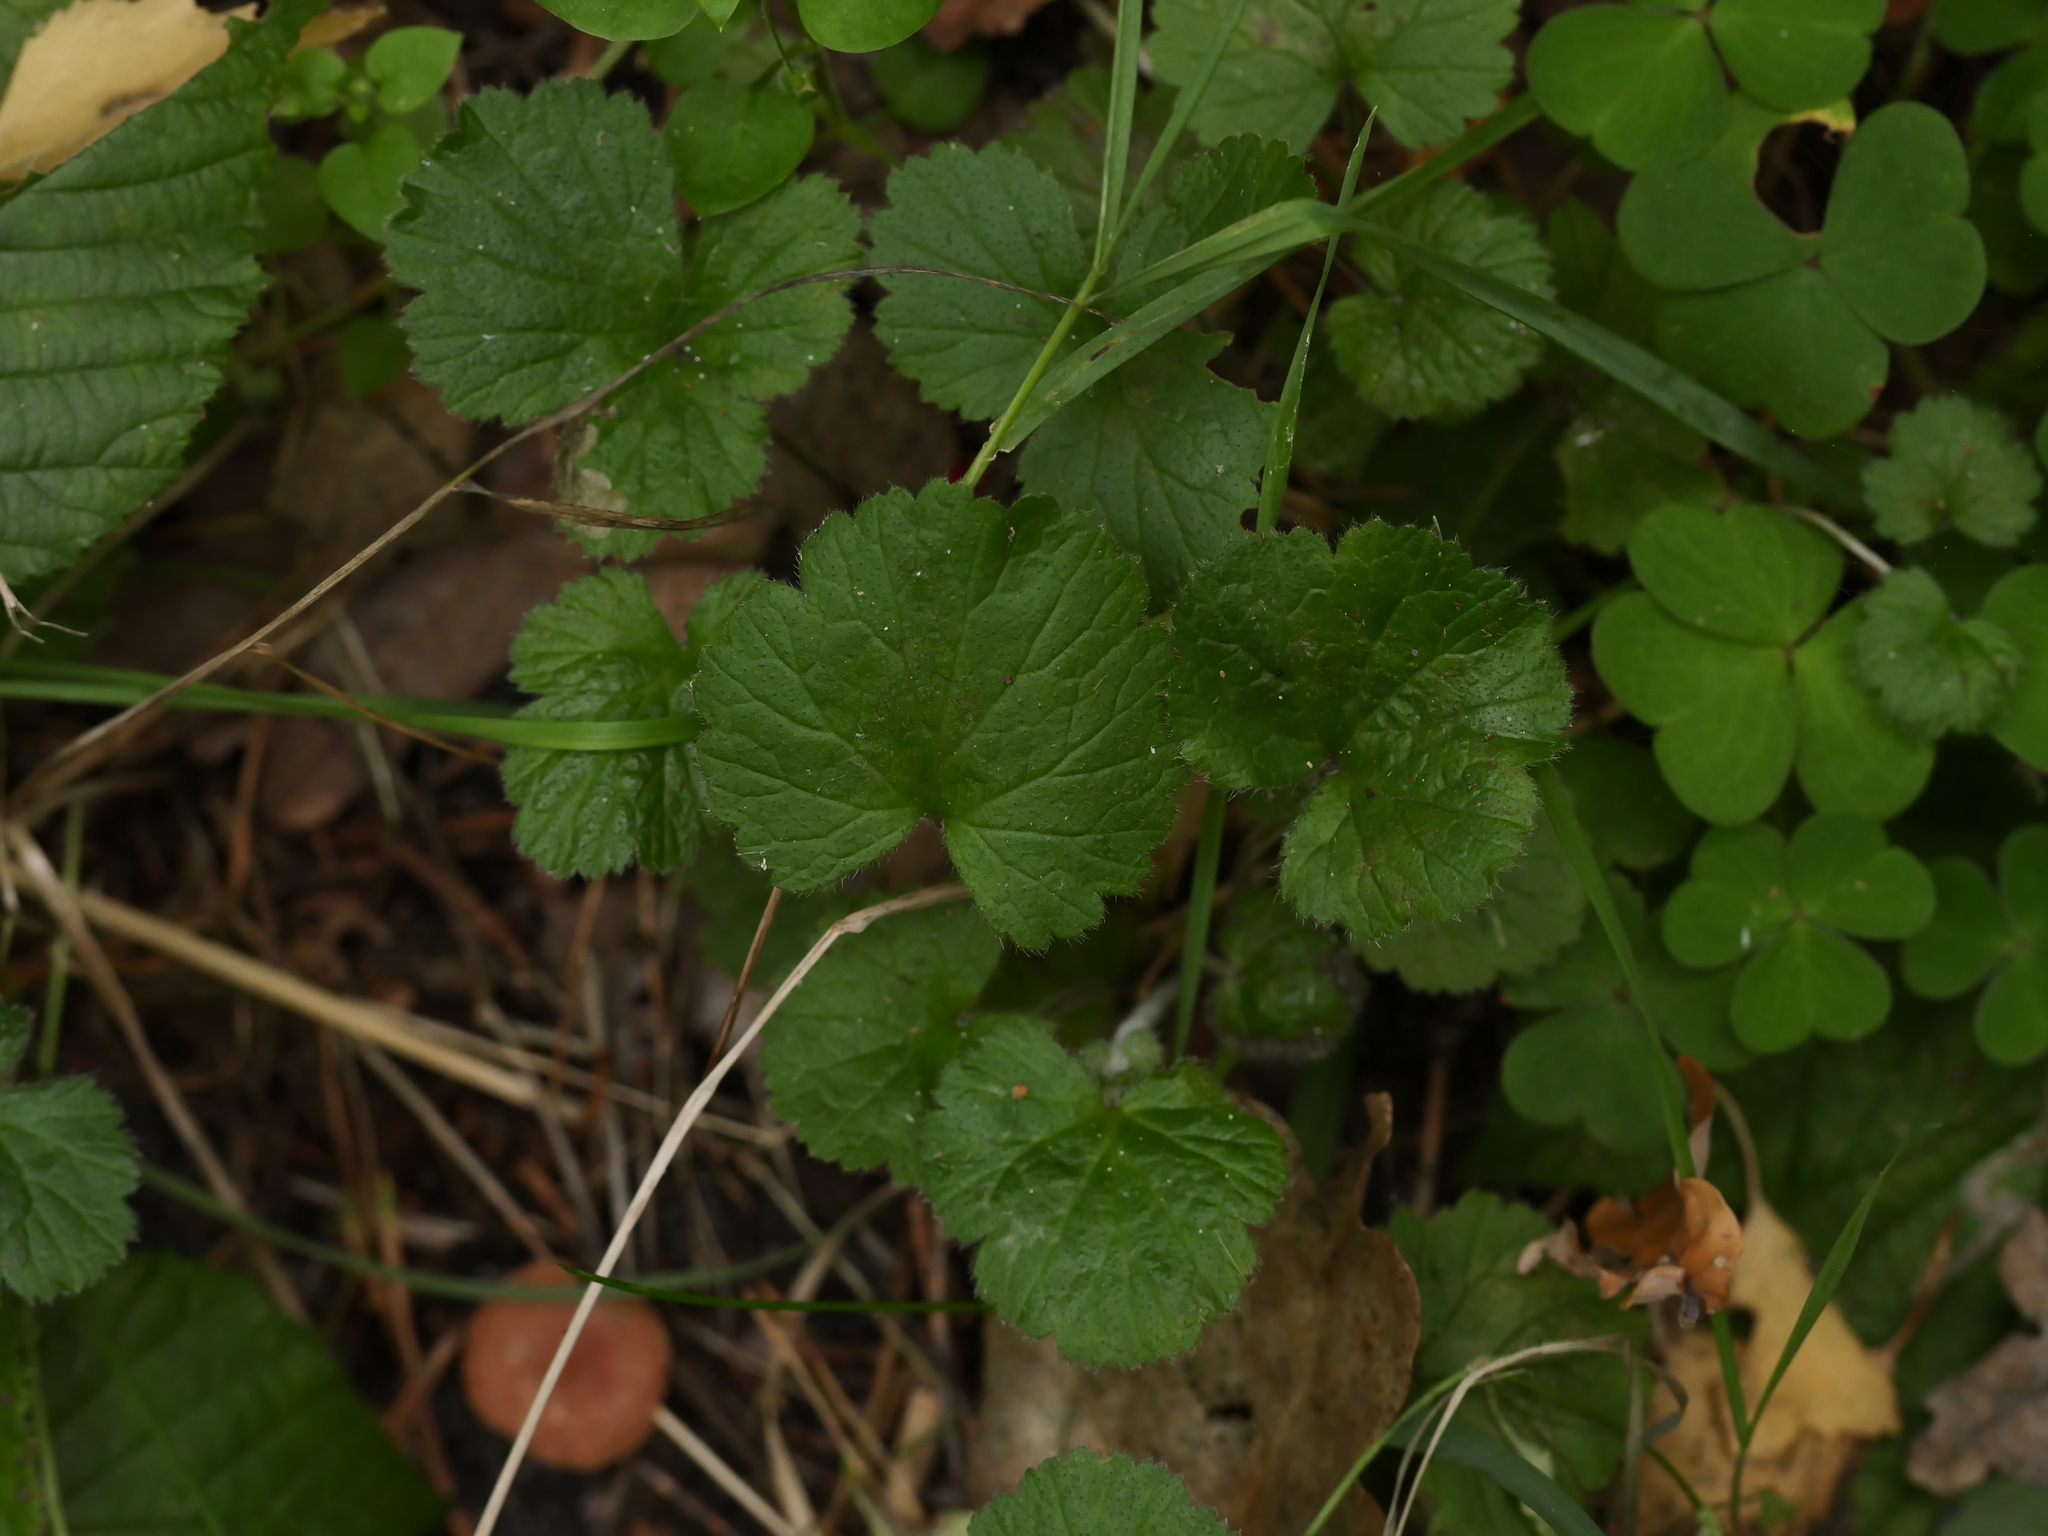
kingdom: Plantae
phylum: Tracheophyta
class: Magnoliopsida
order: Rosales
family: Rosaceae
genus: Geum
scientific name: Geum urbanum
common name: Wood avens
